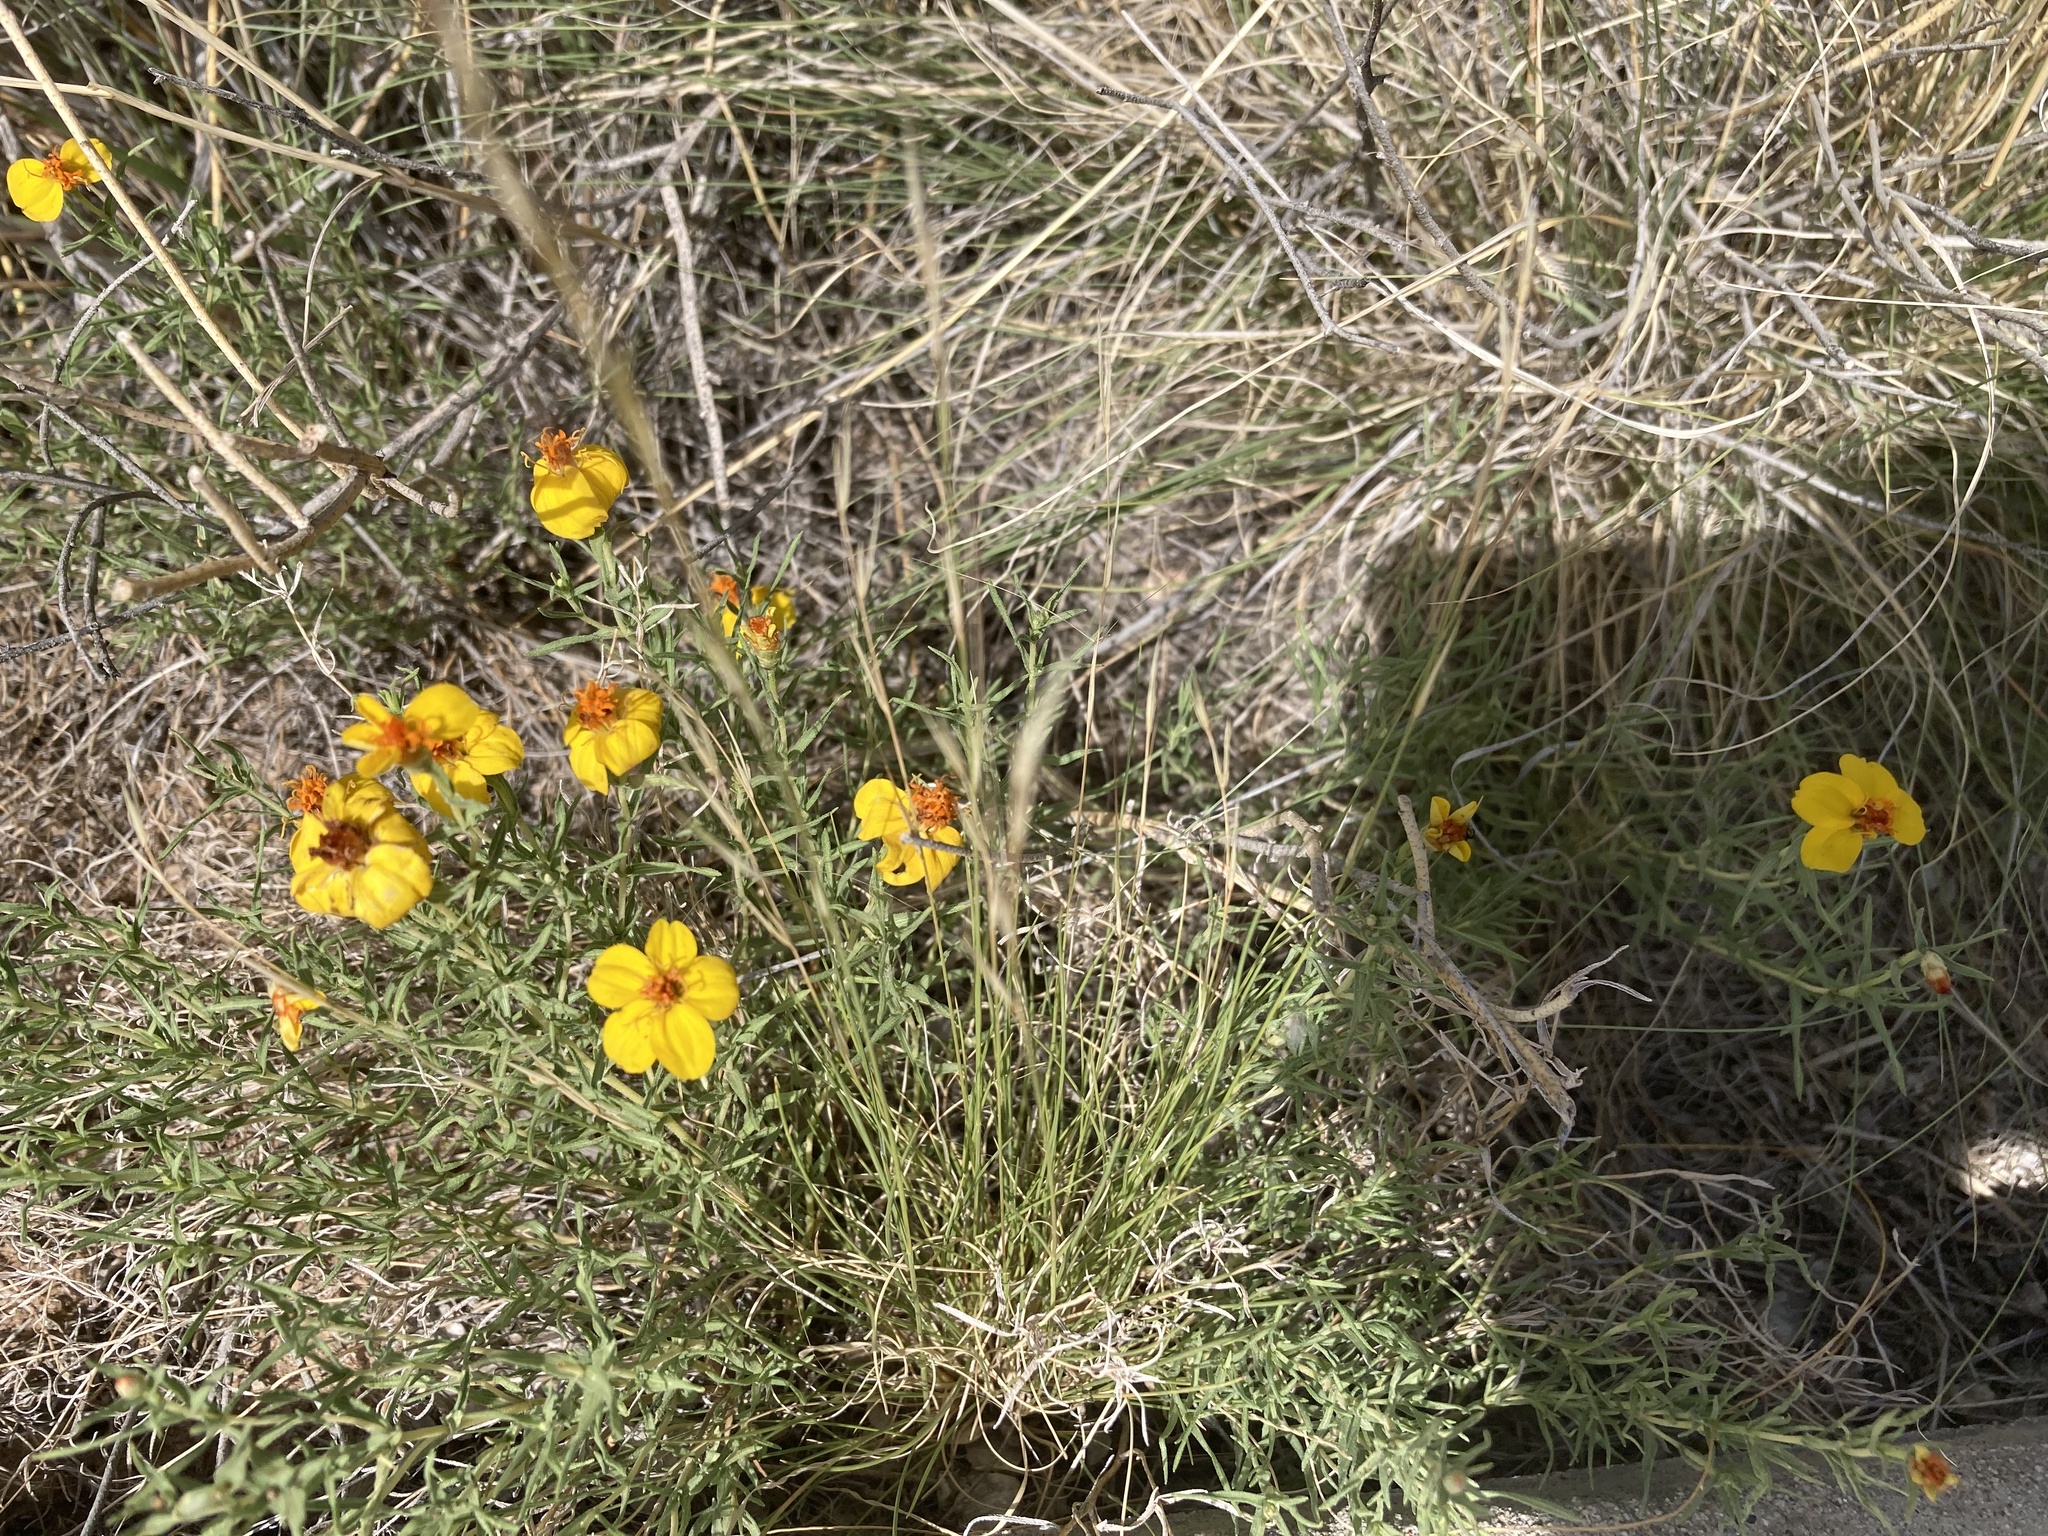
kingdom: Plantae
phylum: Tracheophyta
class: Magnoliopsida
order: Asterales
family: Asteraceae
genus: Zinnia
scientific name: Zinnia grandiflora
